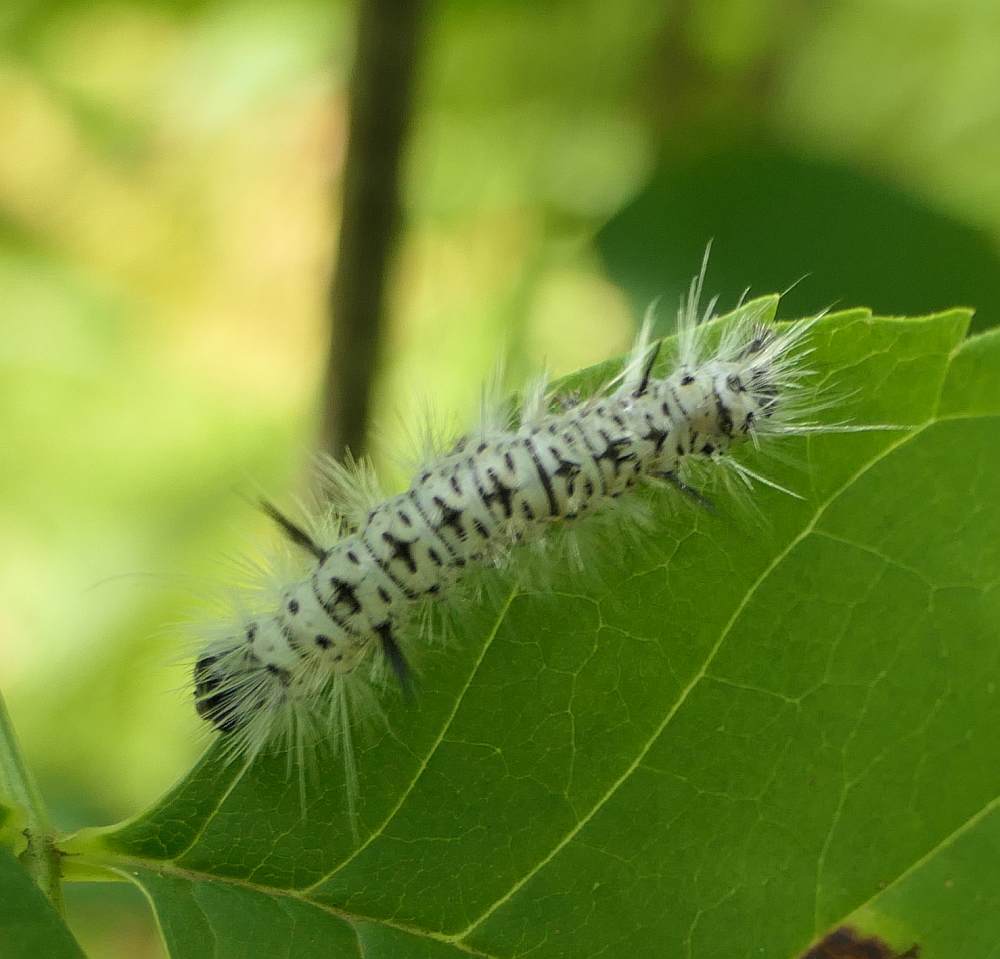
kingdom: Animalia
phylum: Arthropoda
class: Insecta
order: Lepidoptera
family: Erebidae
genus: Lophocampa
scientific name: Lophocampa caryae
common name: Hickory tussock moth
